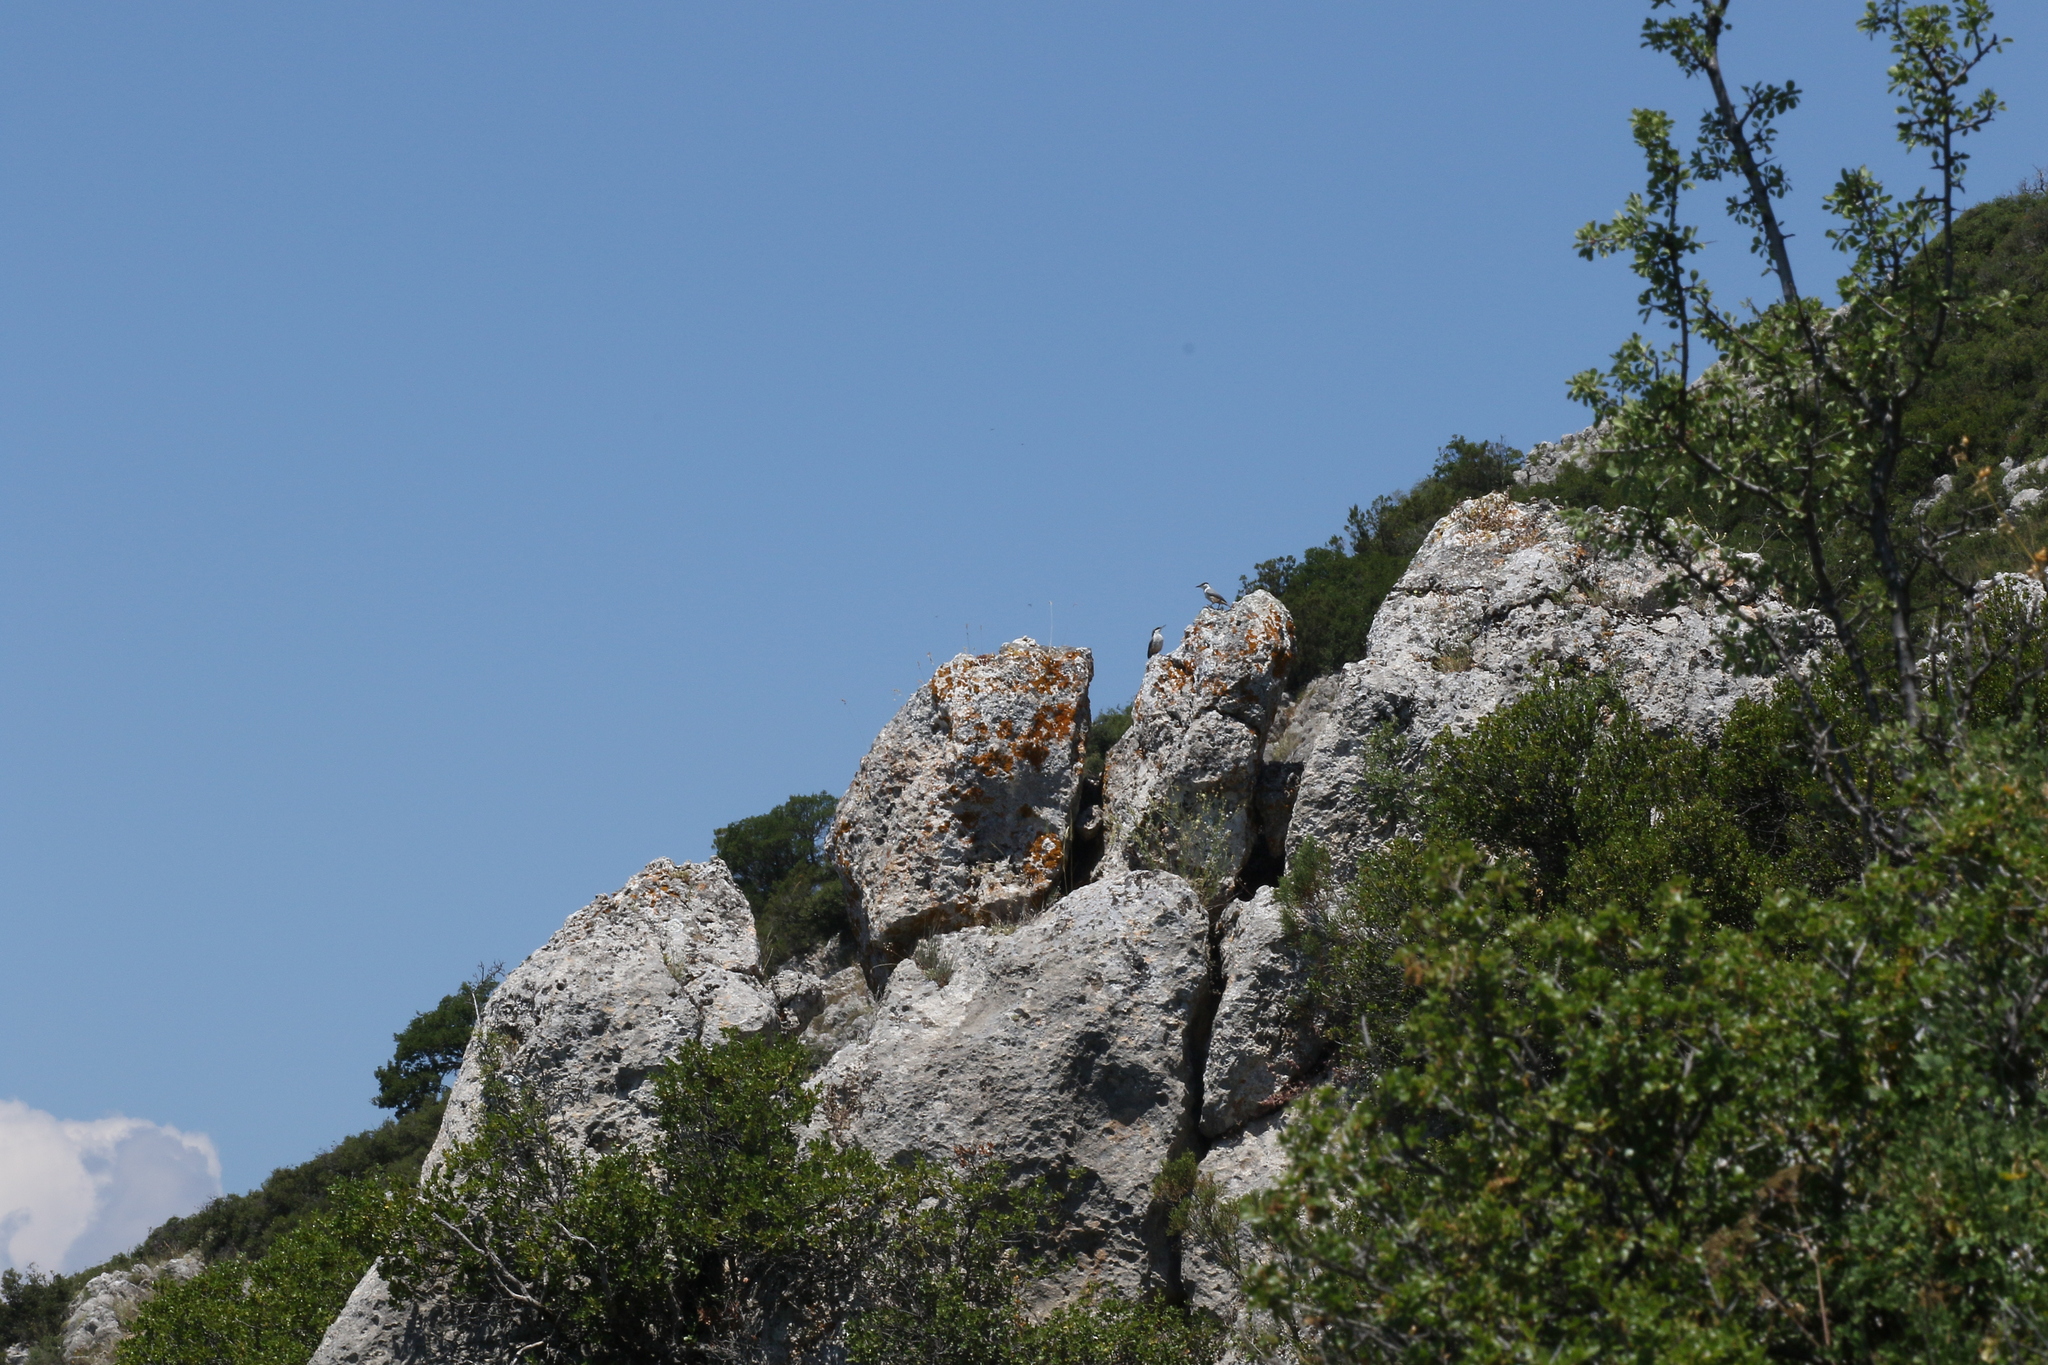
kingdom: Animalia
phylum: Chordata
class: Aves
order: Passeriformes
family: Sittidae
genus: Sitta
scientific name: Sitta neumayer
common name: Western rock nuthatch
